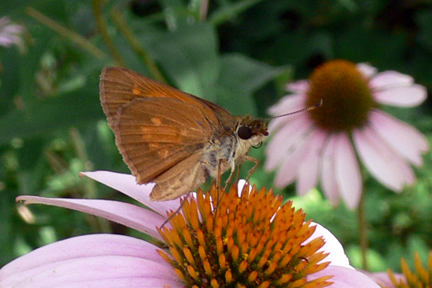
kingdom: Animalia
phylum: Arthropoda
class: Insecta
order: Lepidoptera
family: Hesperiidae
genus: Poanes
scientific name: Poanes viator
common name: Broad-winged skipper
